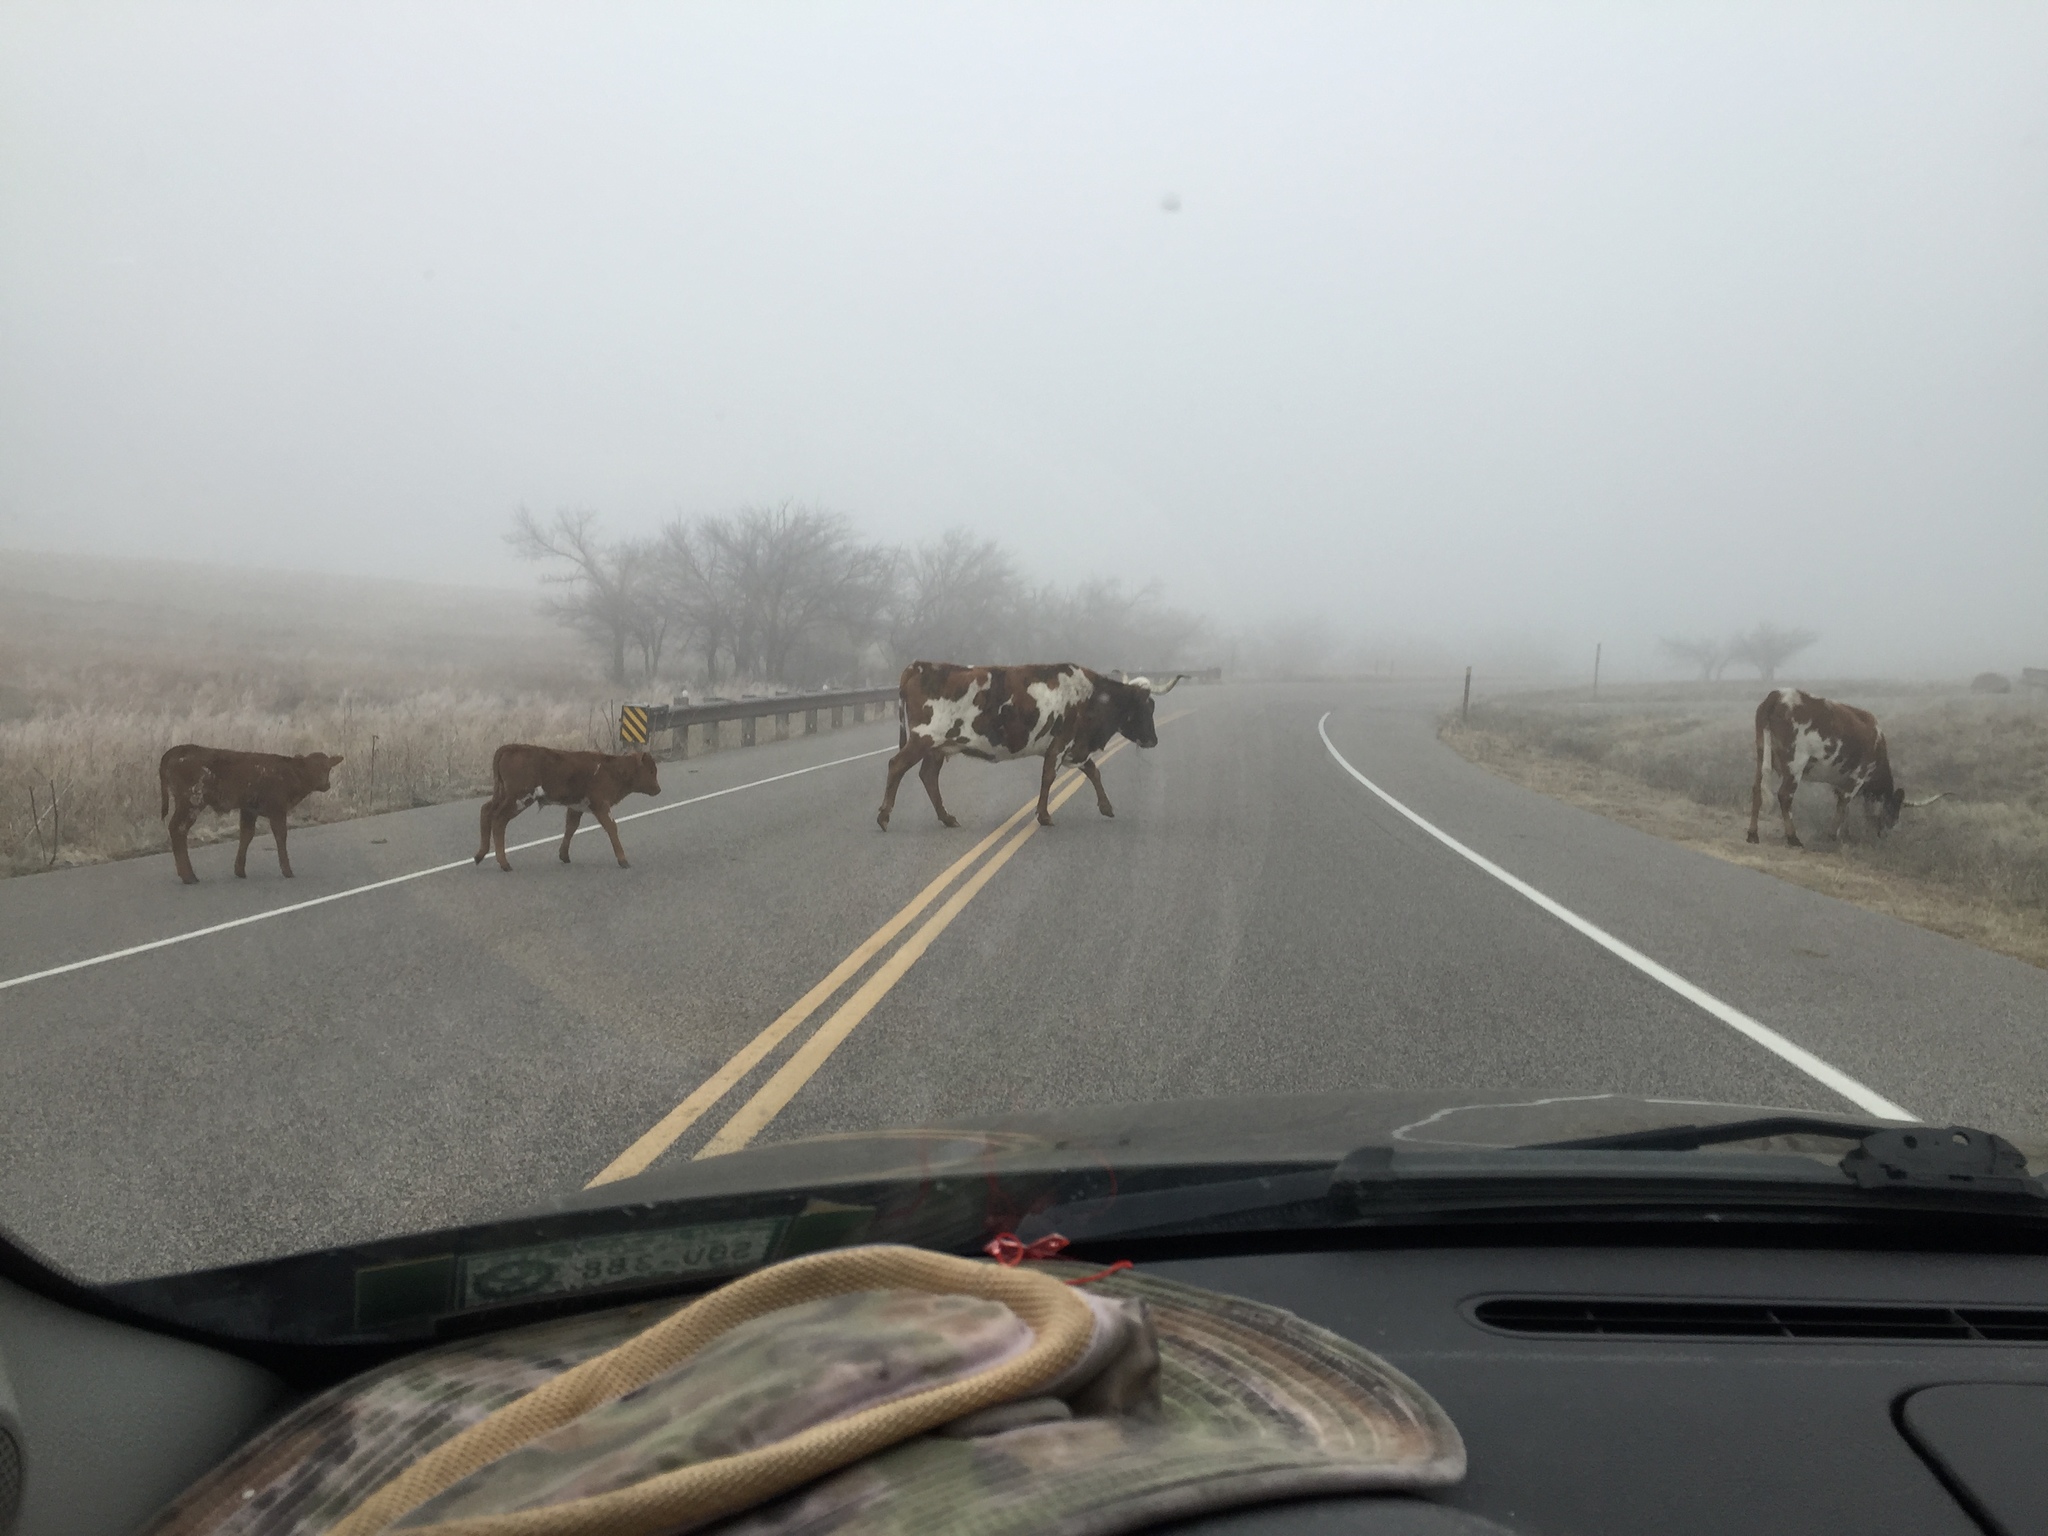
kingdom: Animalia
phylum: Chordata
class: Mammalia
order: Artiodactyla
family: Bovidae
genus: Bos
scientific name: Bos taurus
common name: Domesticated cattle
